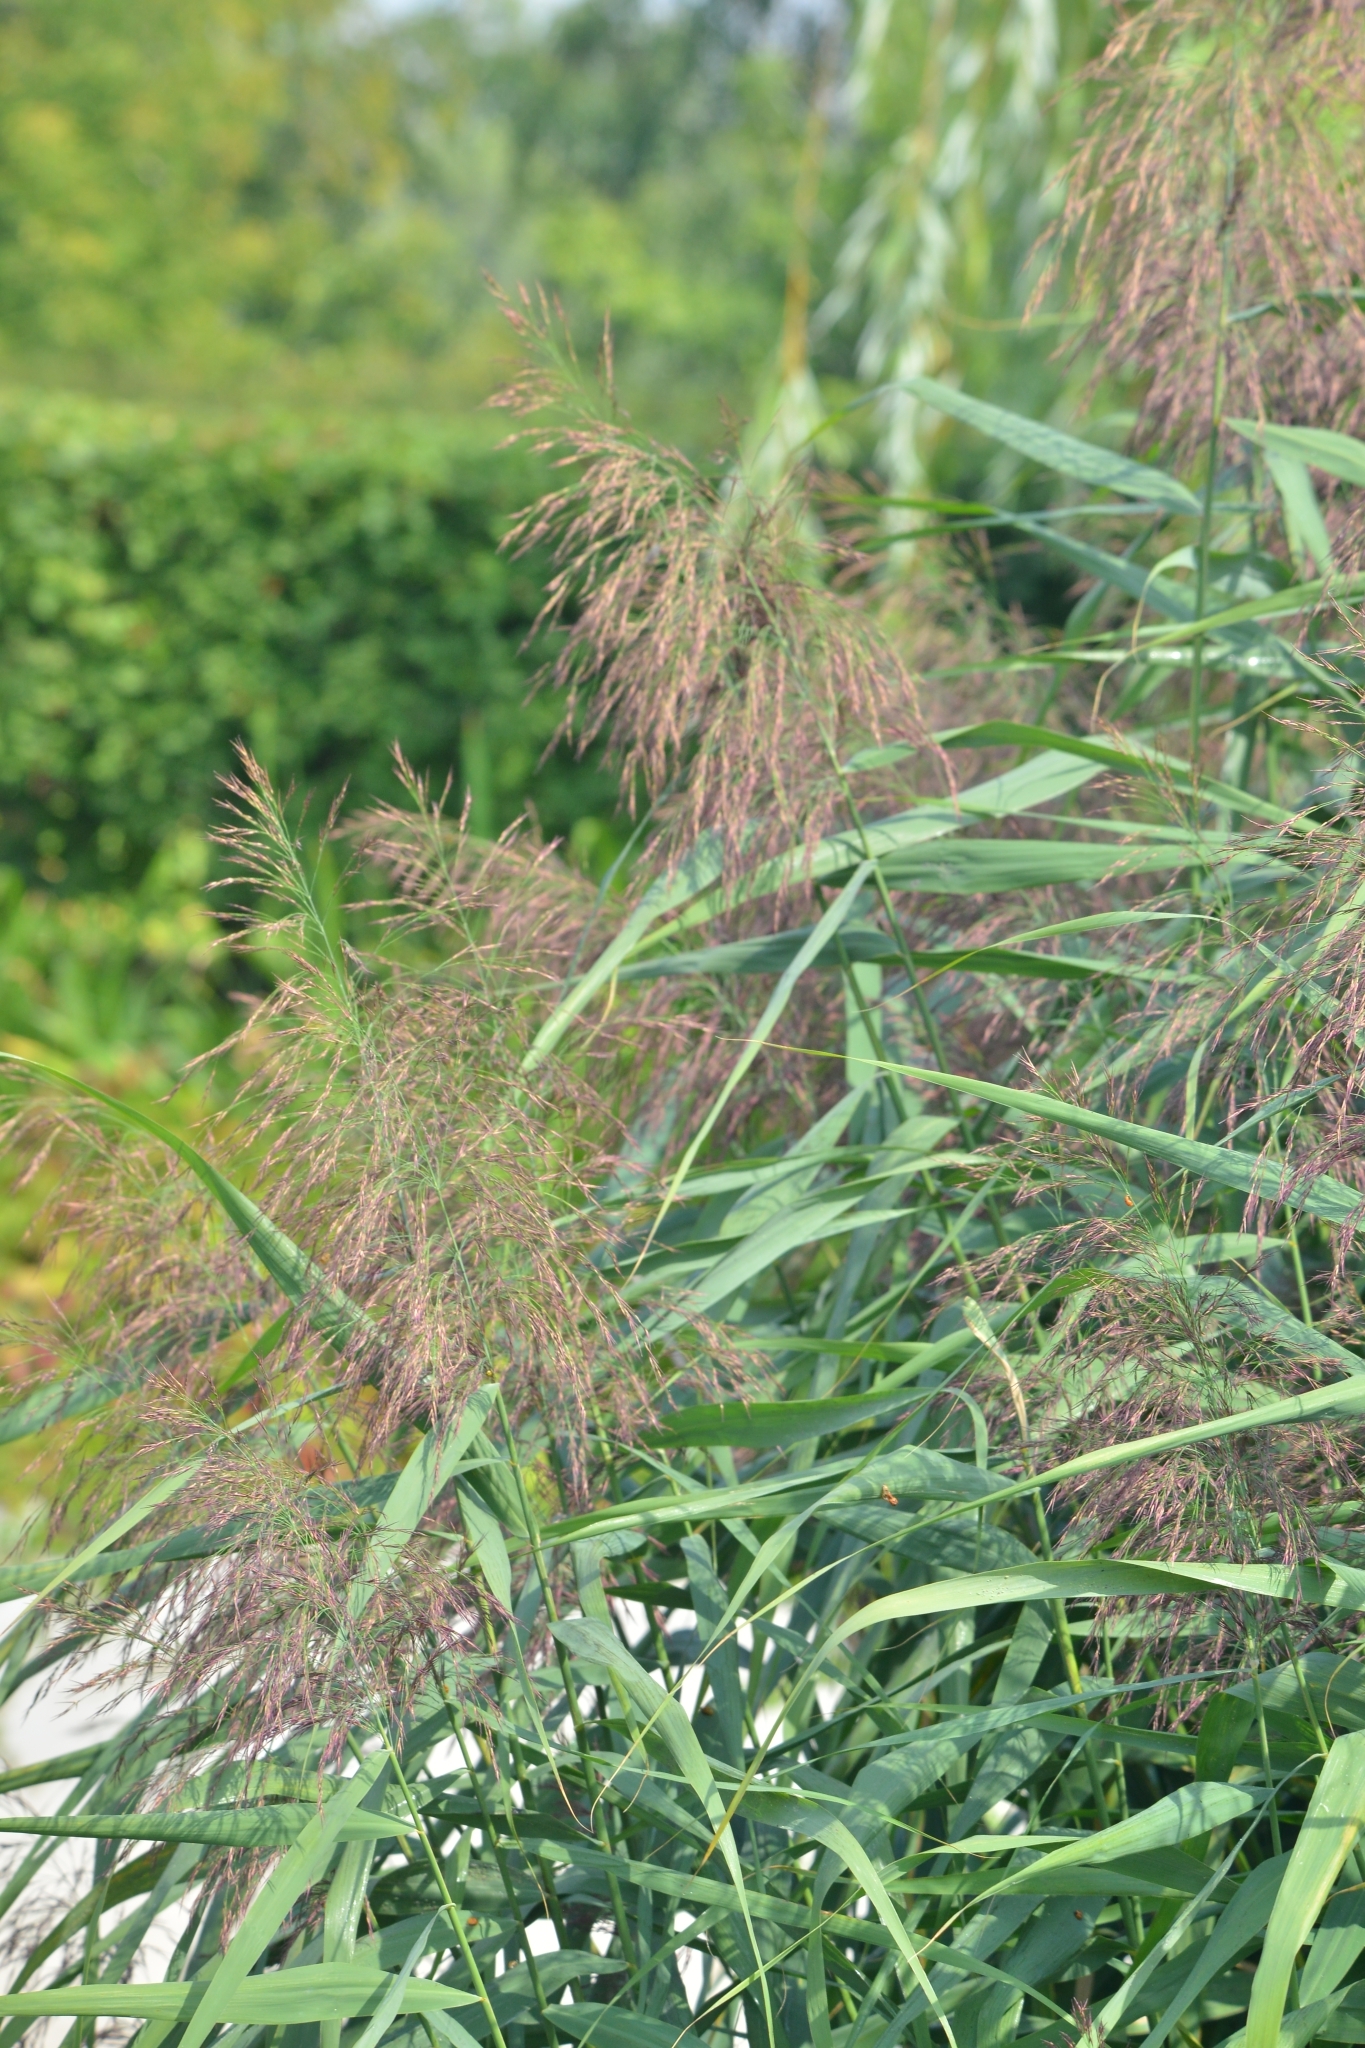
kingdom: Plantae
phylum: Tracheophyta
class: Liliopsida
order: Poales
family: Poaceae
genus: Phragmites
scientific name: Phragmites australis
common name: Common reed
